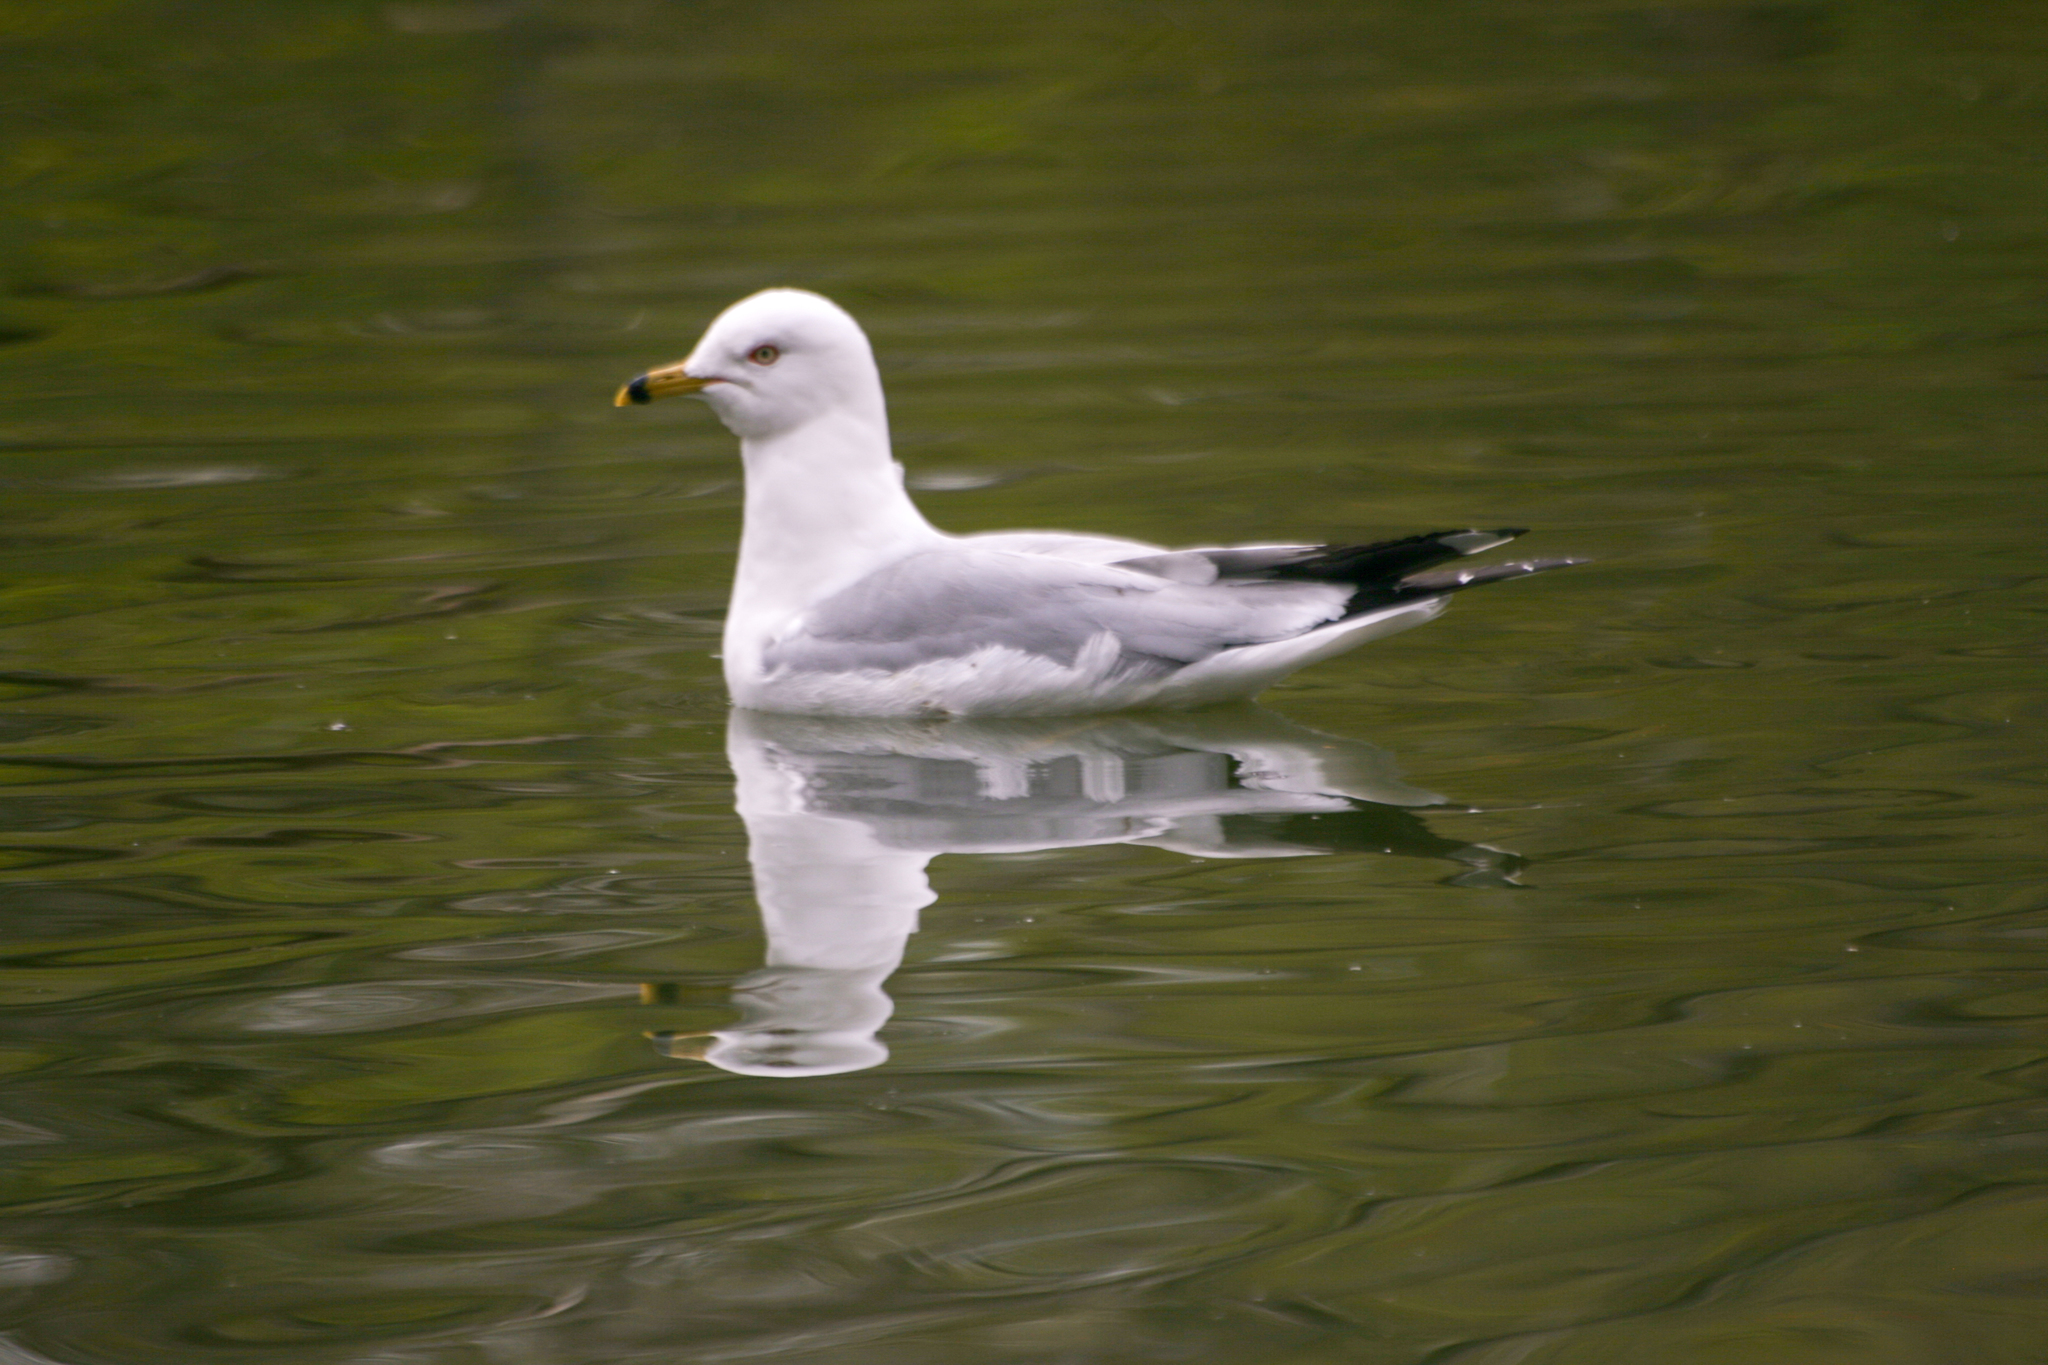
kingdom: Animalia
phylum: Chordata
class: Aves
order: Charadriiformes
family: Laridae
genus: Larus
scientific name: Larus delawarensis
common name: Ring-billed gull
